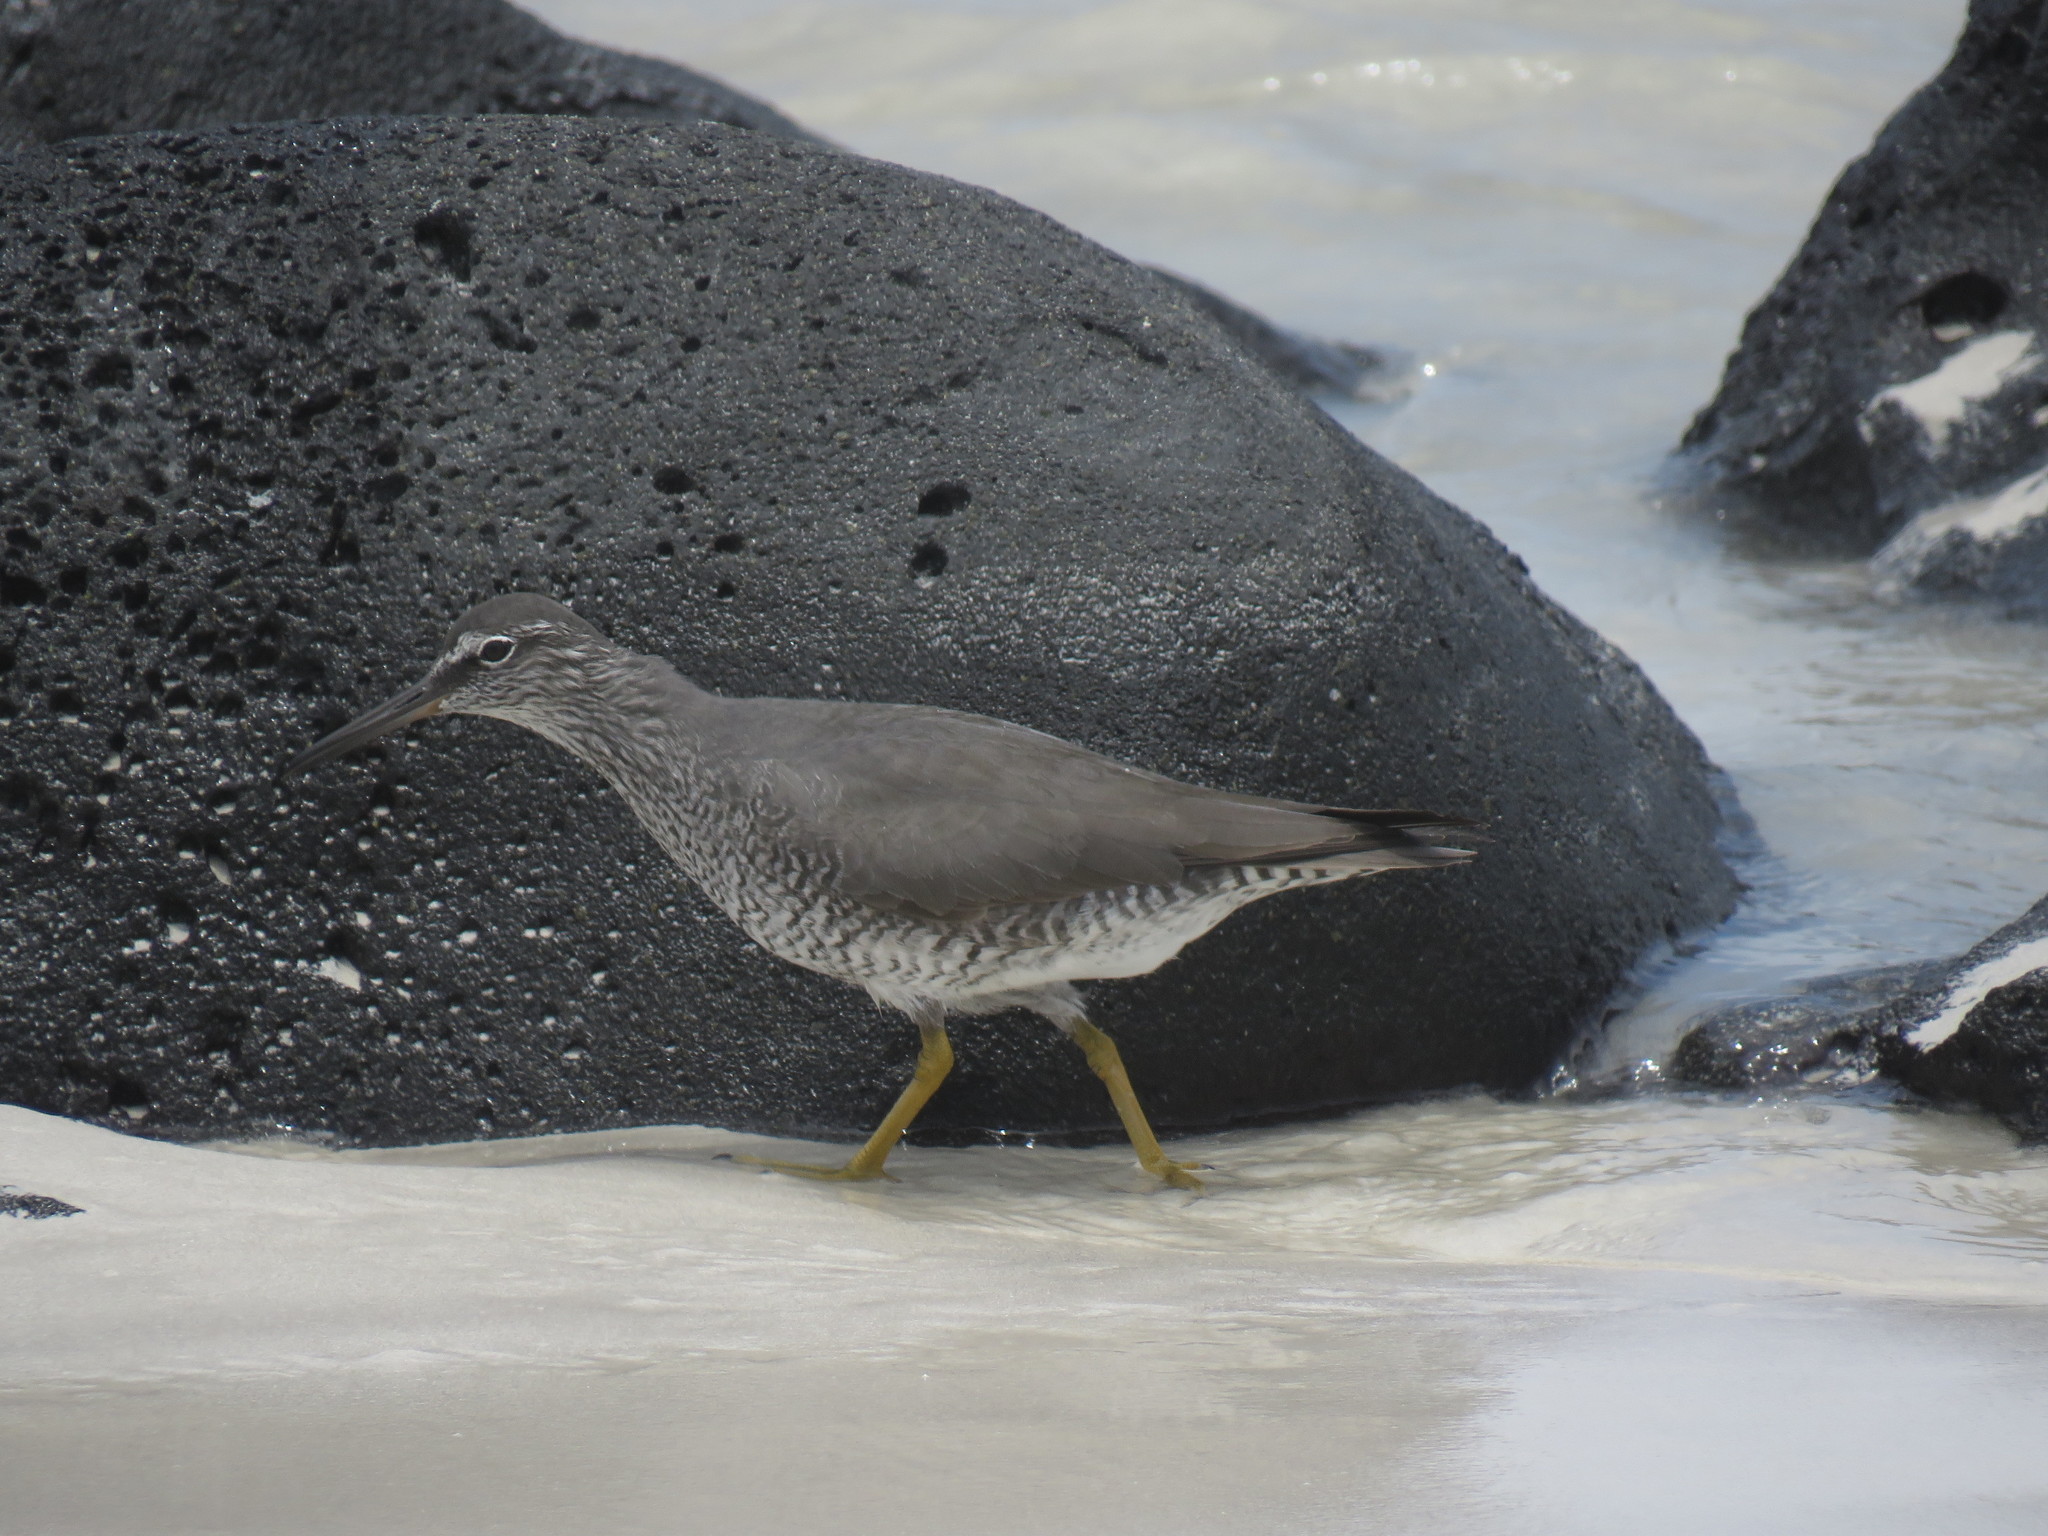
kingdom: Animalia
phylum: Chordata
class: Aves
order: Charadriiformes
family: Scolopacidae
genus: Tringa
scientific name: Tringa incana
